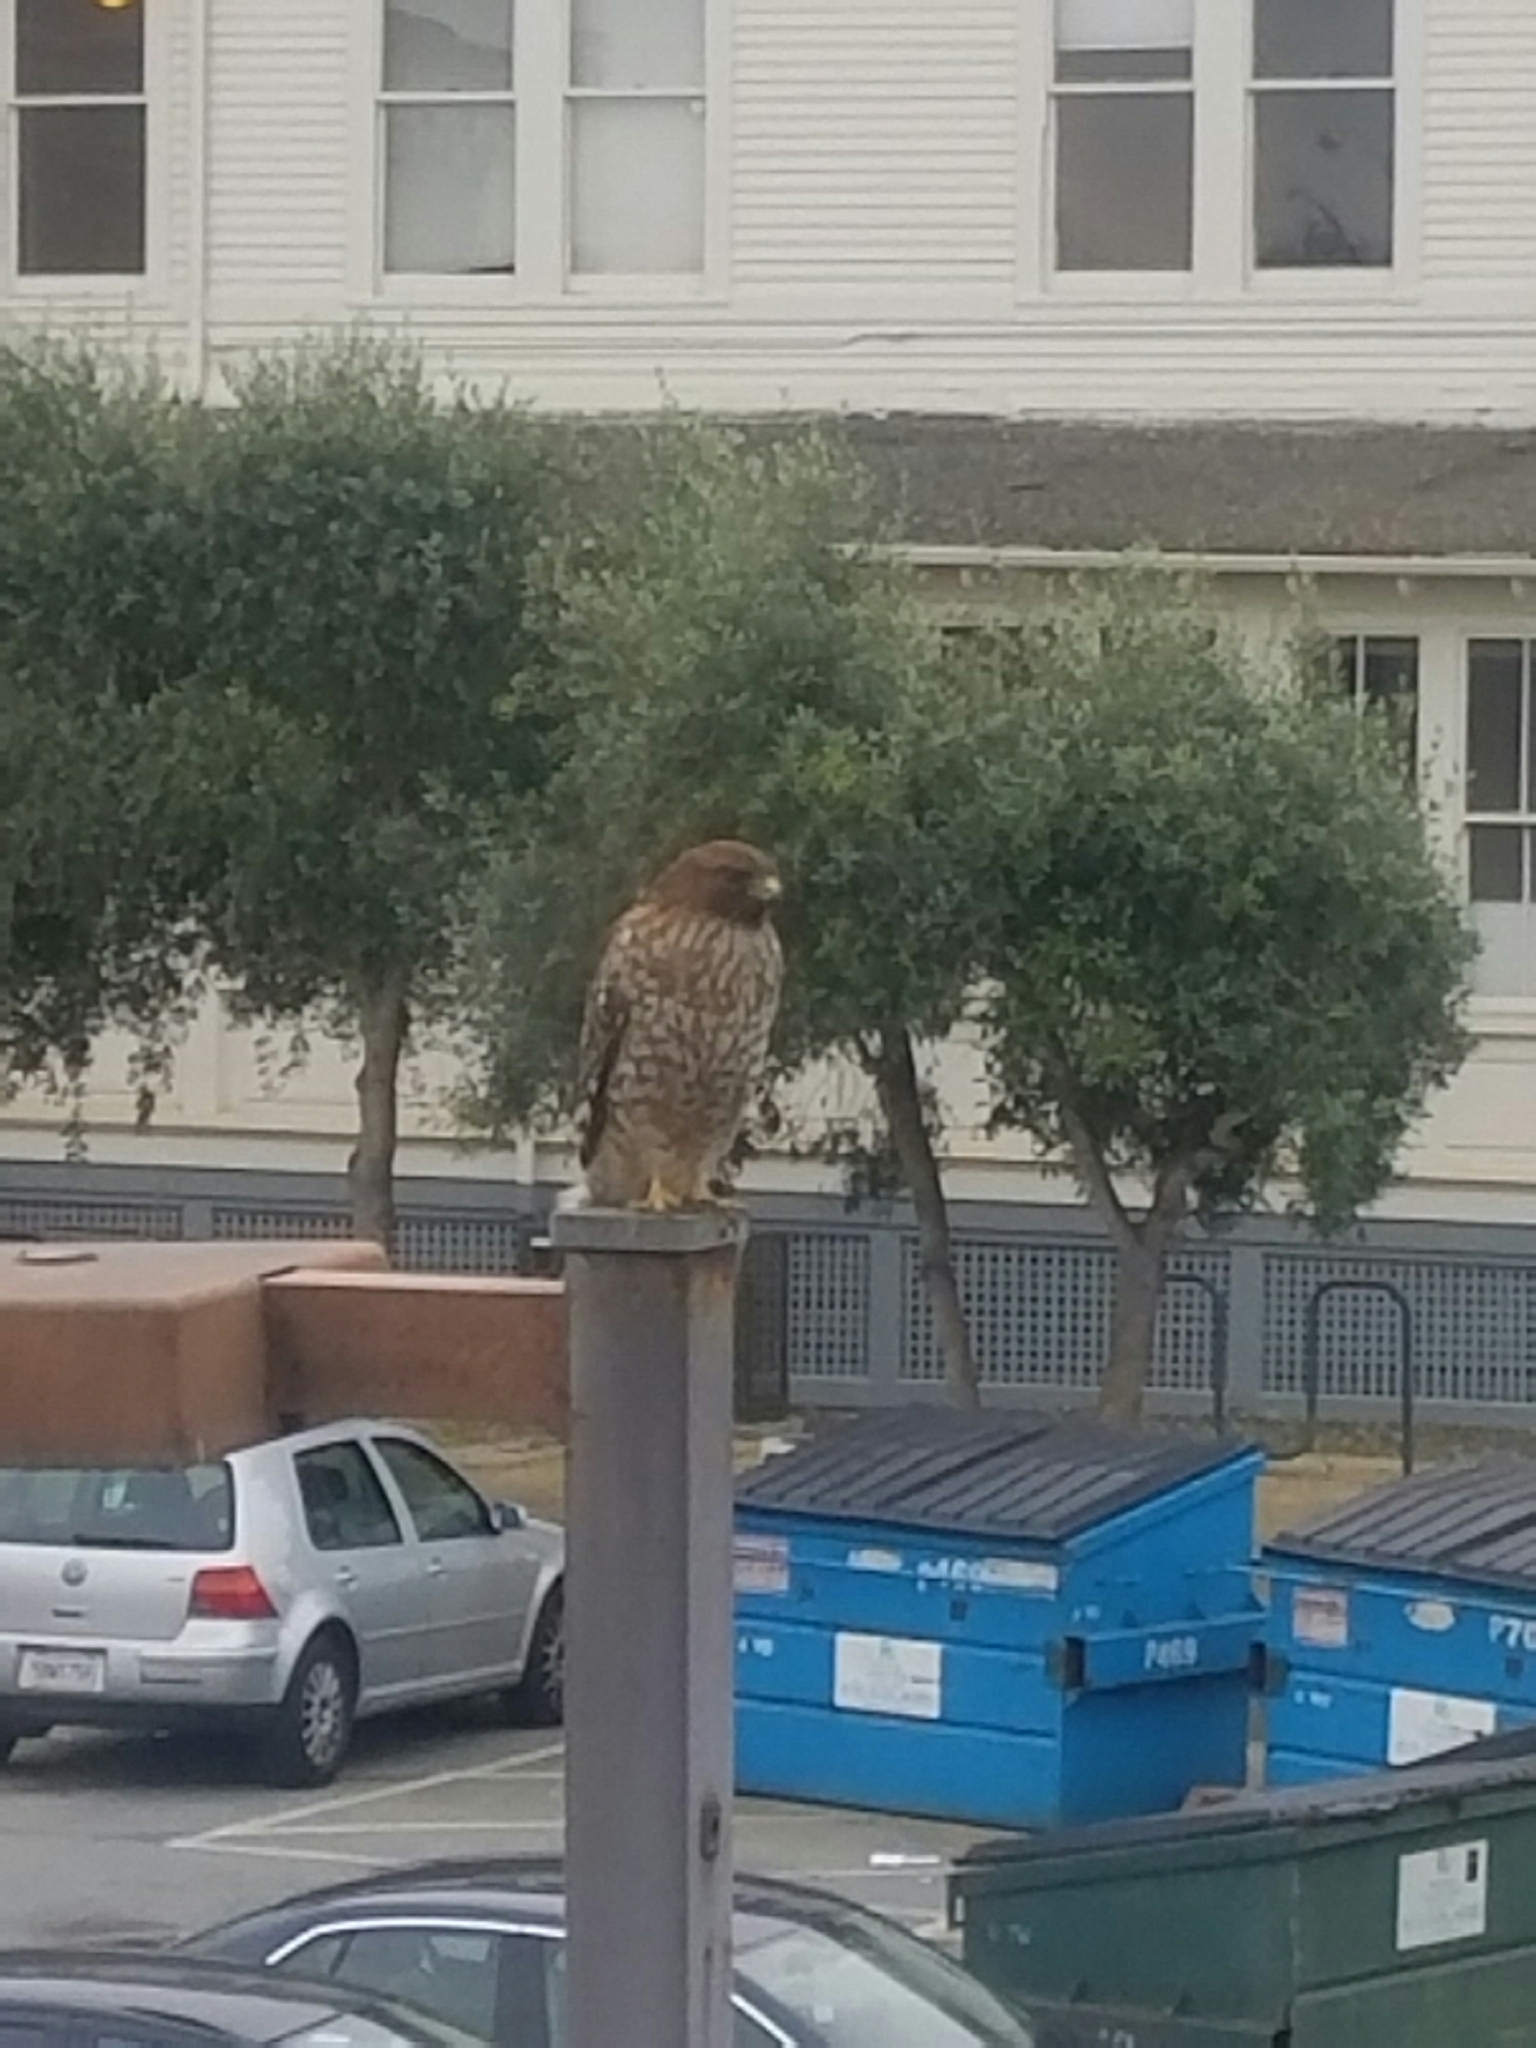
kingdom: Animalia
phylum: Chordata
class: Aves
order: Accipitriformes
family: Accipitridae
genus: Buteo
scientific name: Buteo lineatus
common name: Red-shouldered hawk
